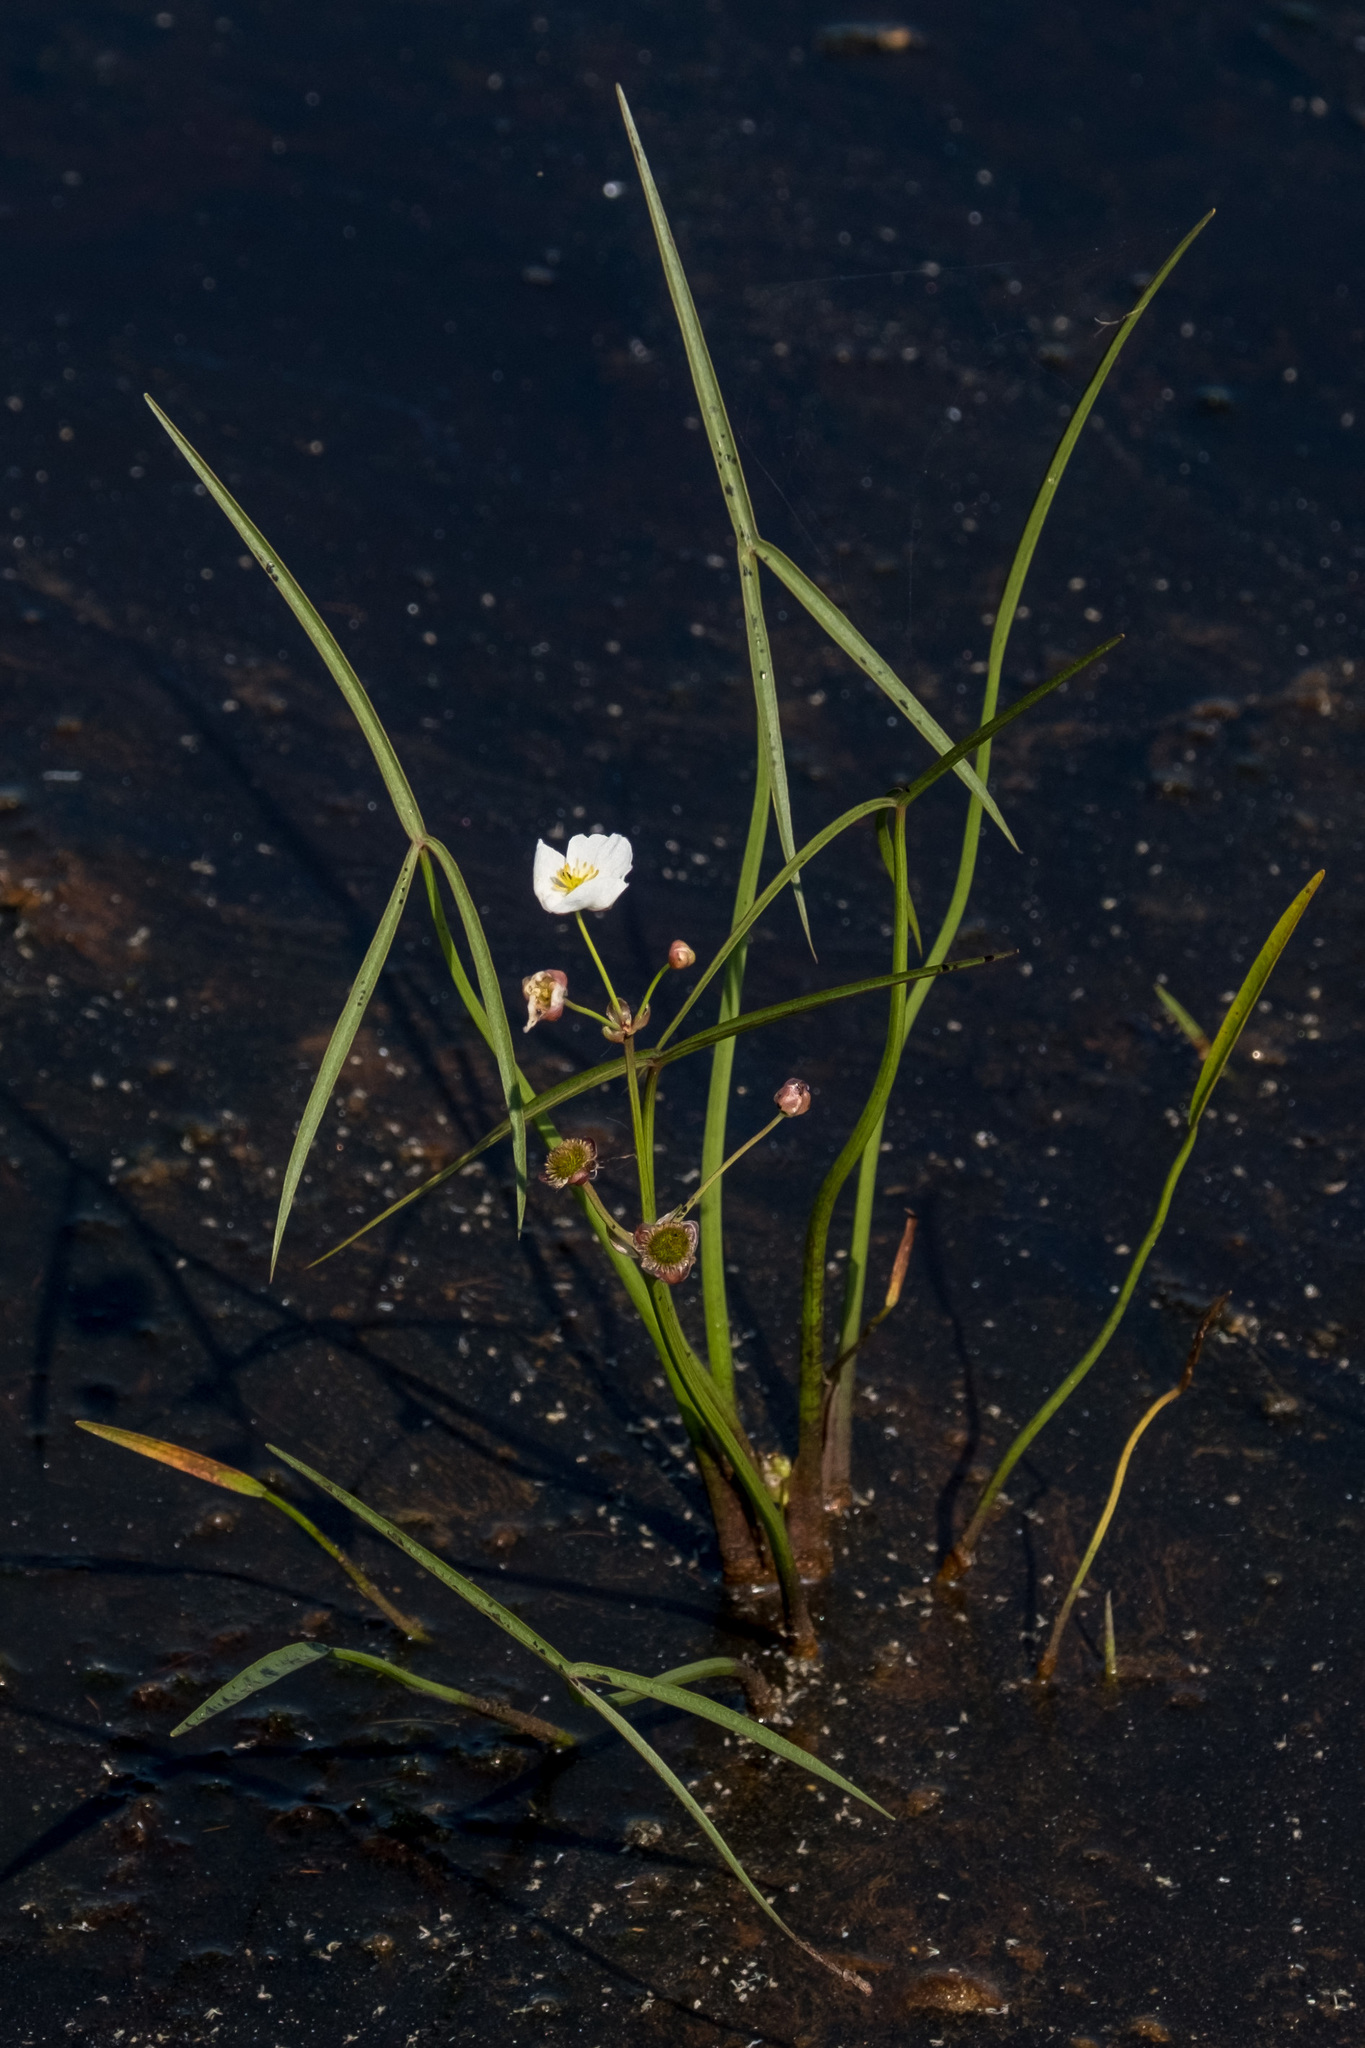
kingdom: Plantae
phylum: Tracheophyta
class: Liliopsida
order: Alismatales
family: Alismataceae
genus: Sagittaria
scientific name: Sagittaria engelmanniana
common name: Acid-water arrowhead
